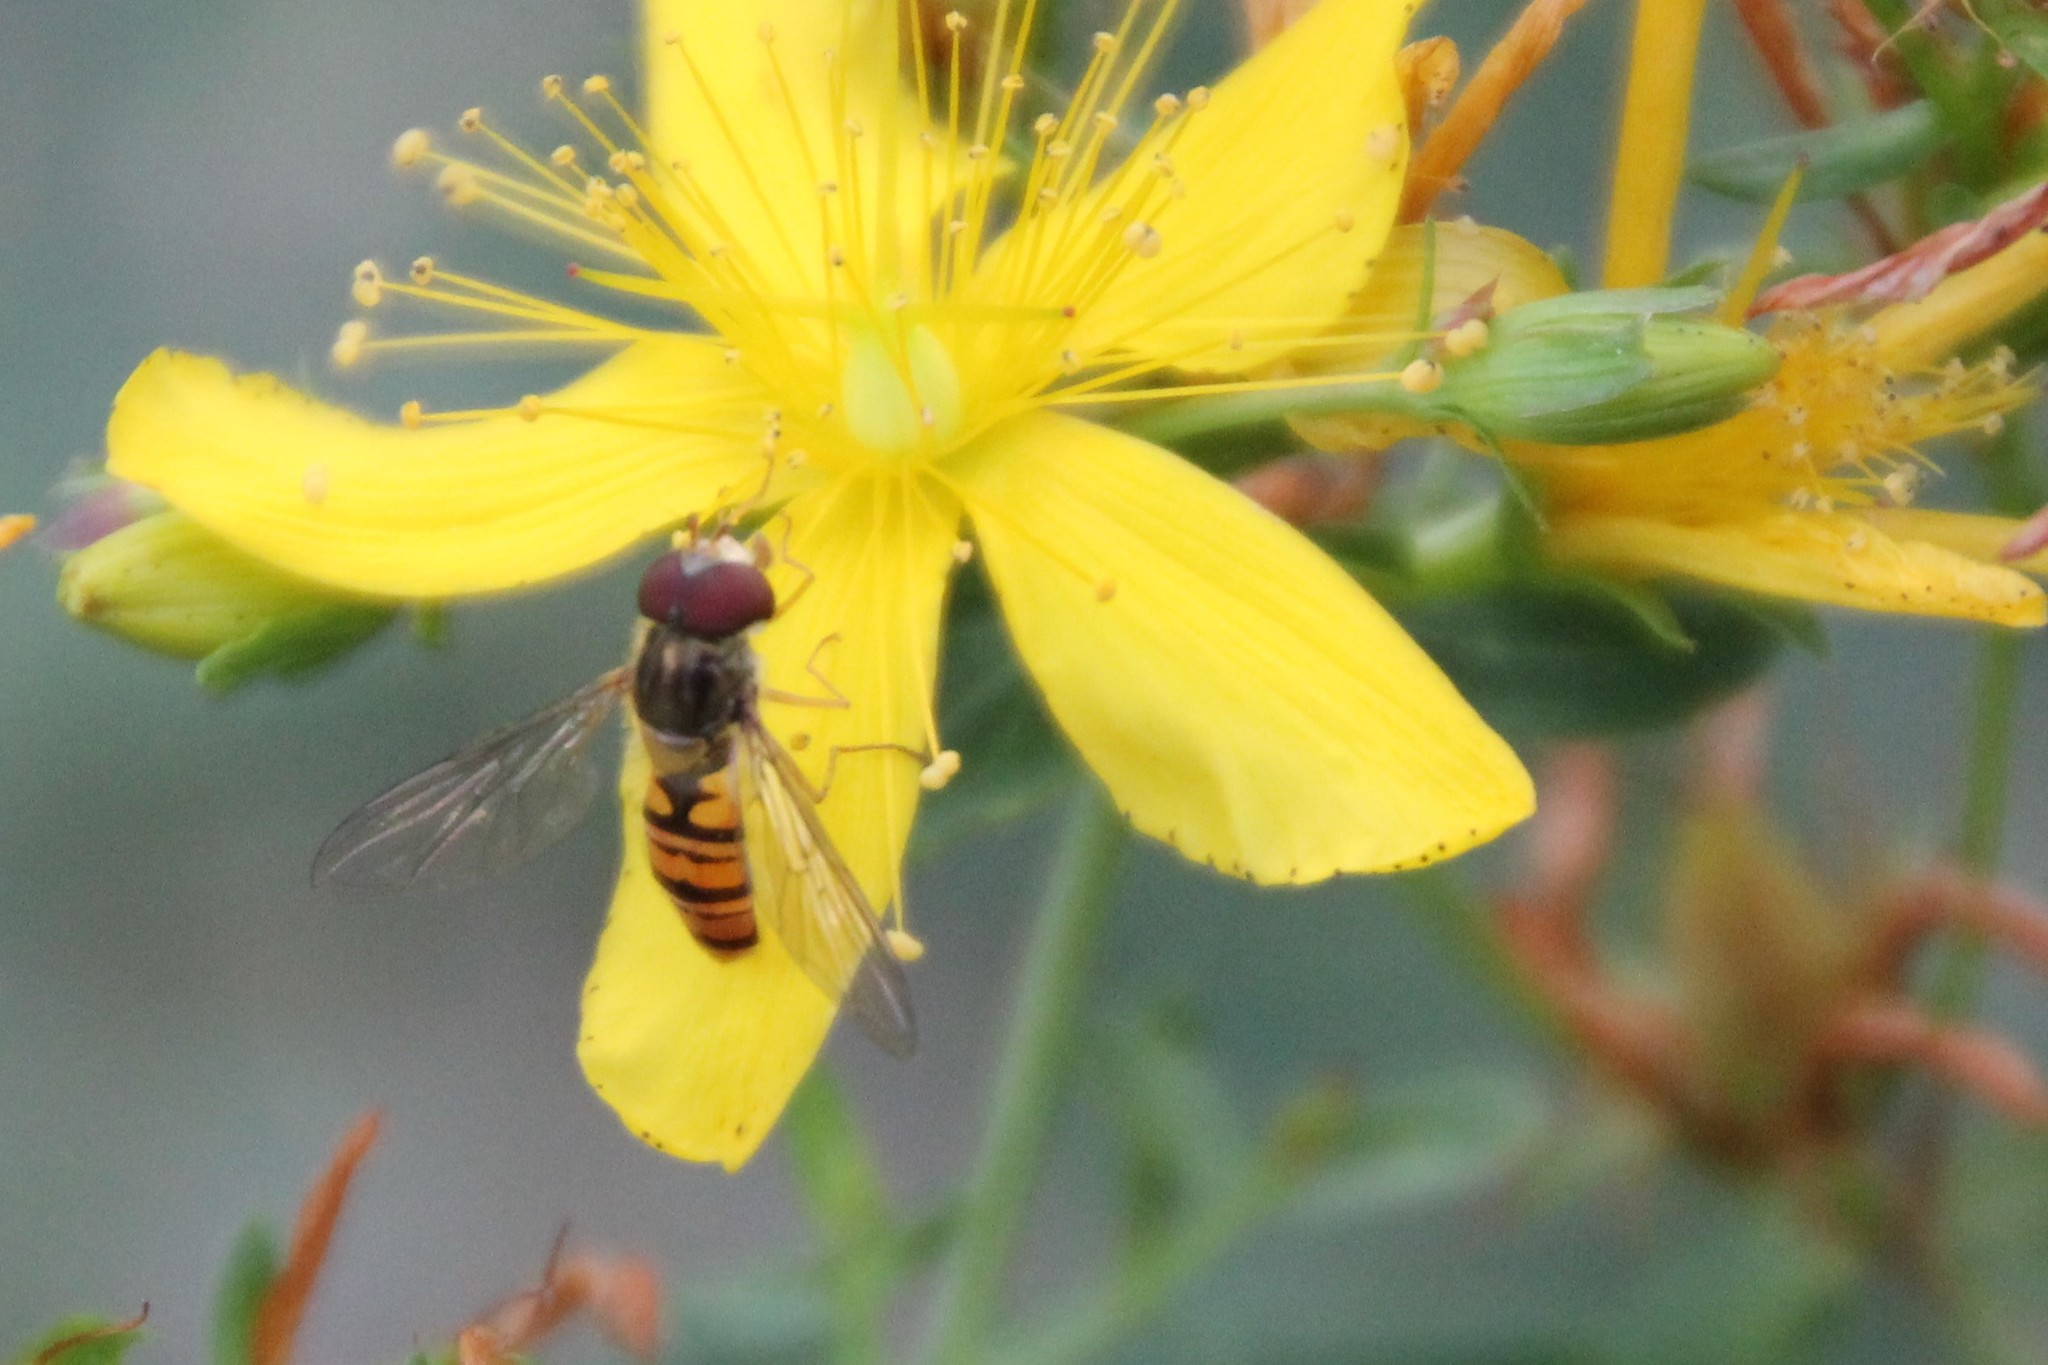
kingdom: Animalia
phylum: Arthropoda
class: Insecta
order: Diptera
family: Syrphidae
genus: Episyrphus
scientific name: Episyrphus balteatus
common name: Marmalade hoverfly
